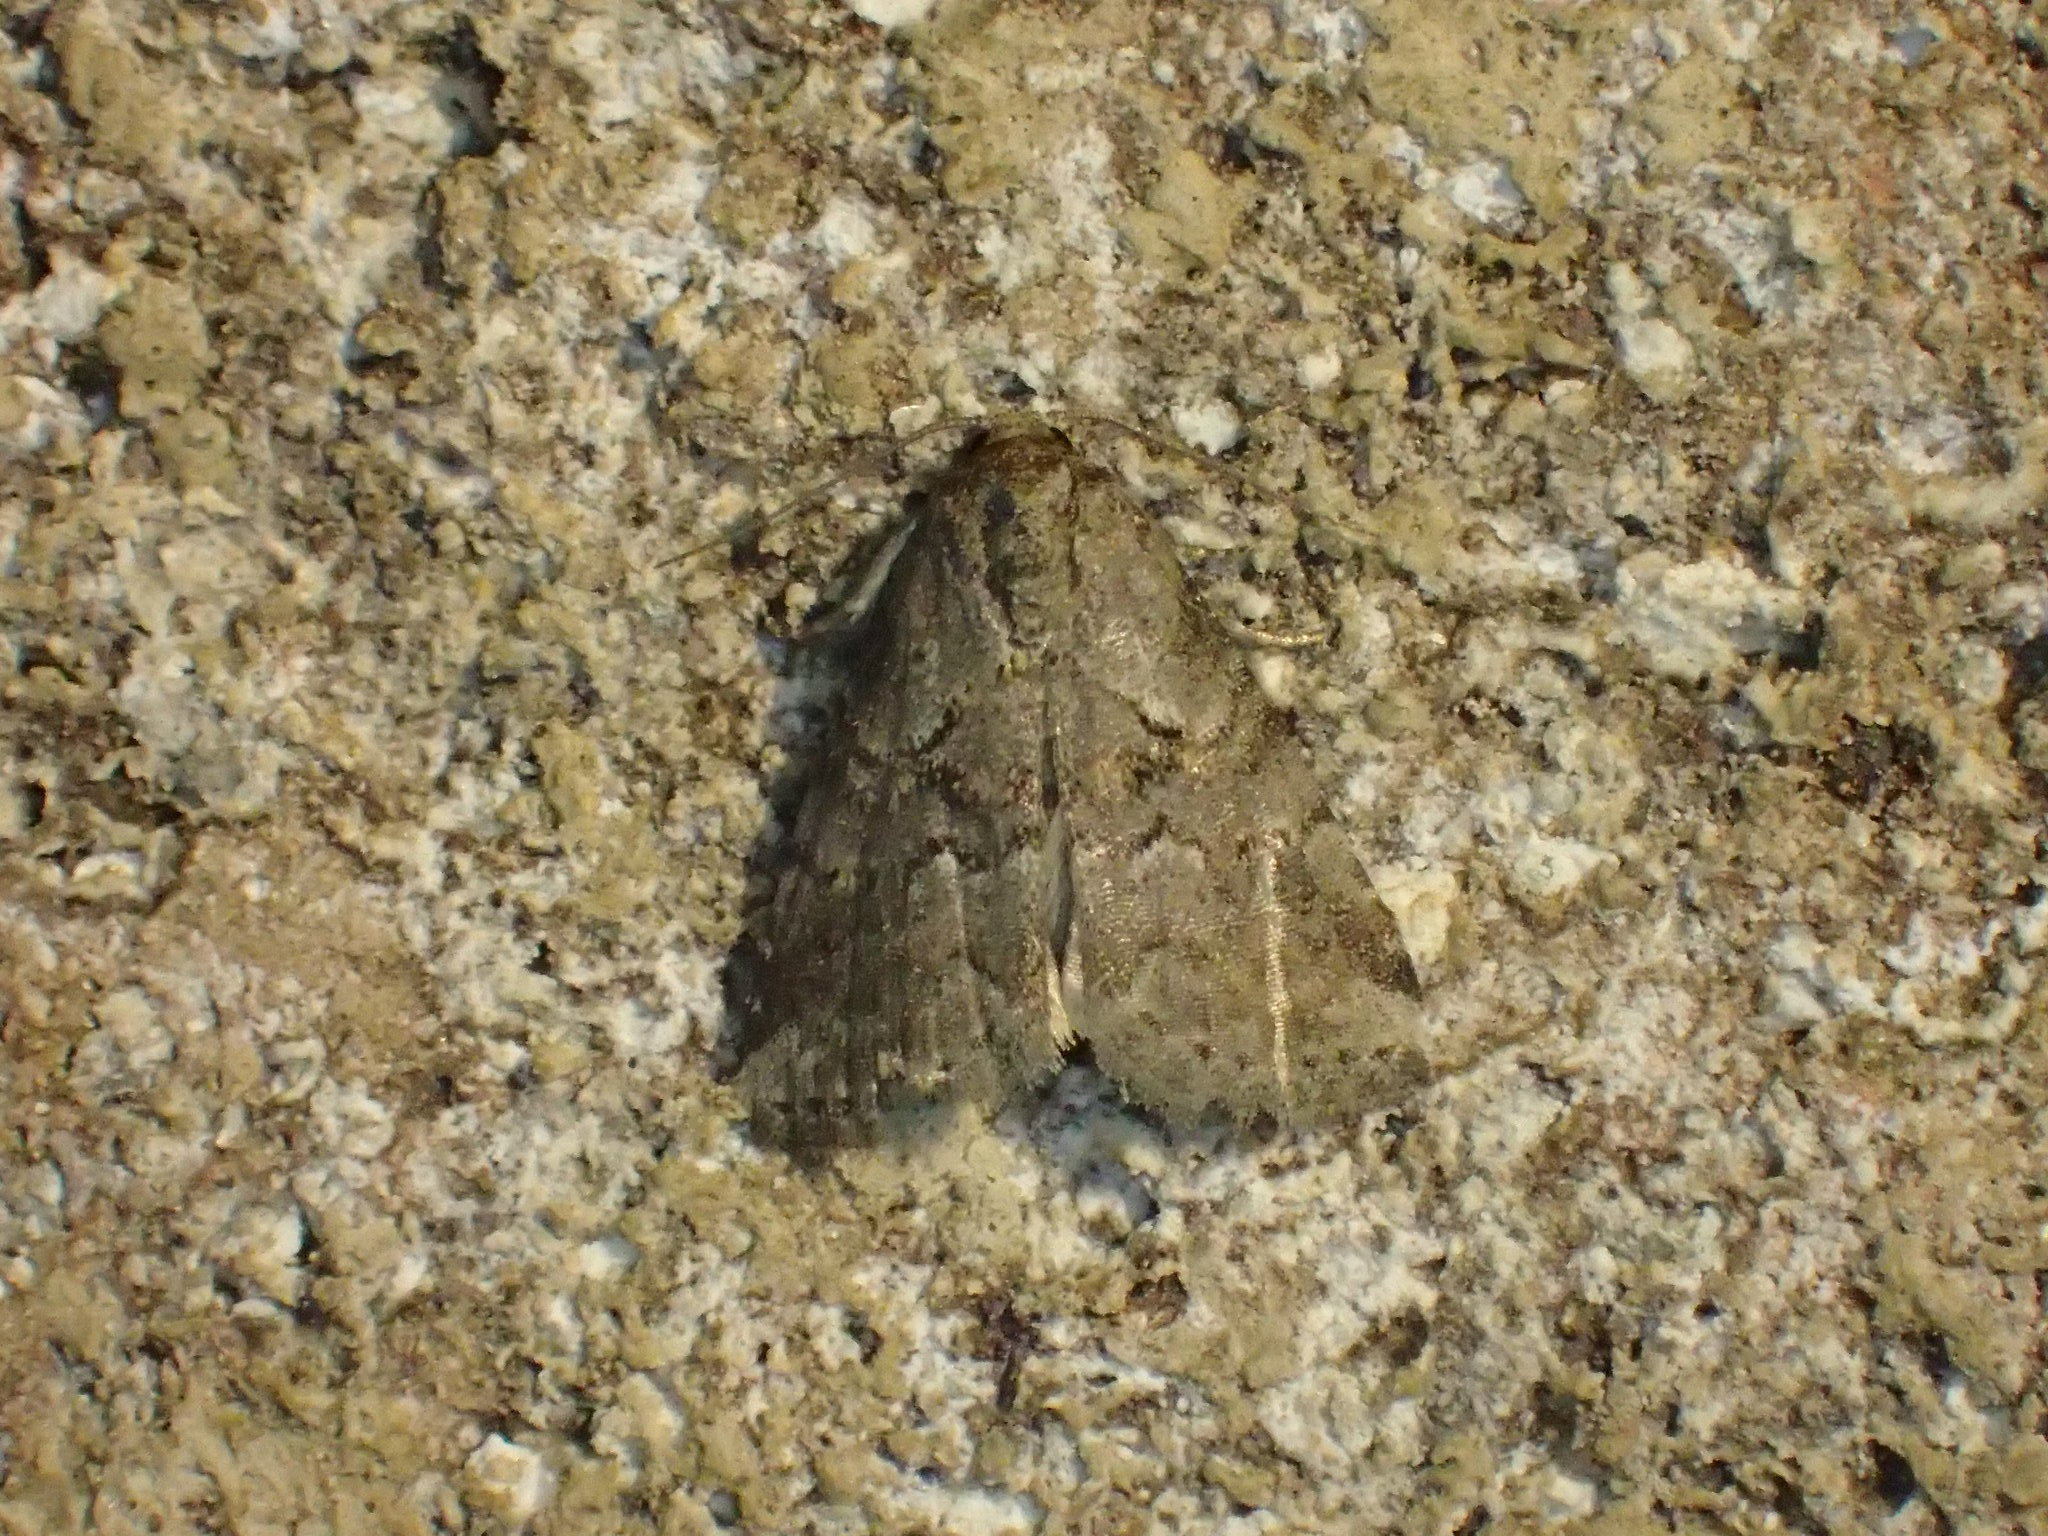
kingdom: Animalia
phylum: Arthropoda
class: Insecta
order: Lepidoptera
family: Erebidae
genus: Hyperstrotia
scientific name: Hyperstrotia nana
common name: White-lined graylet
